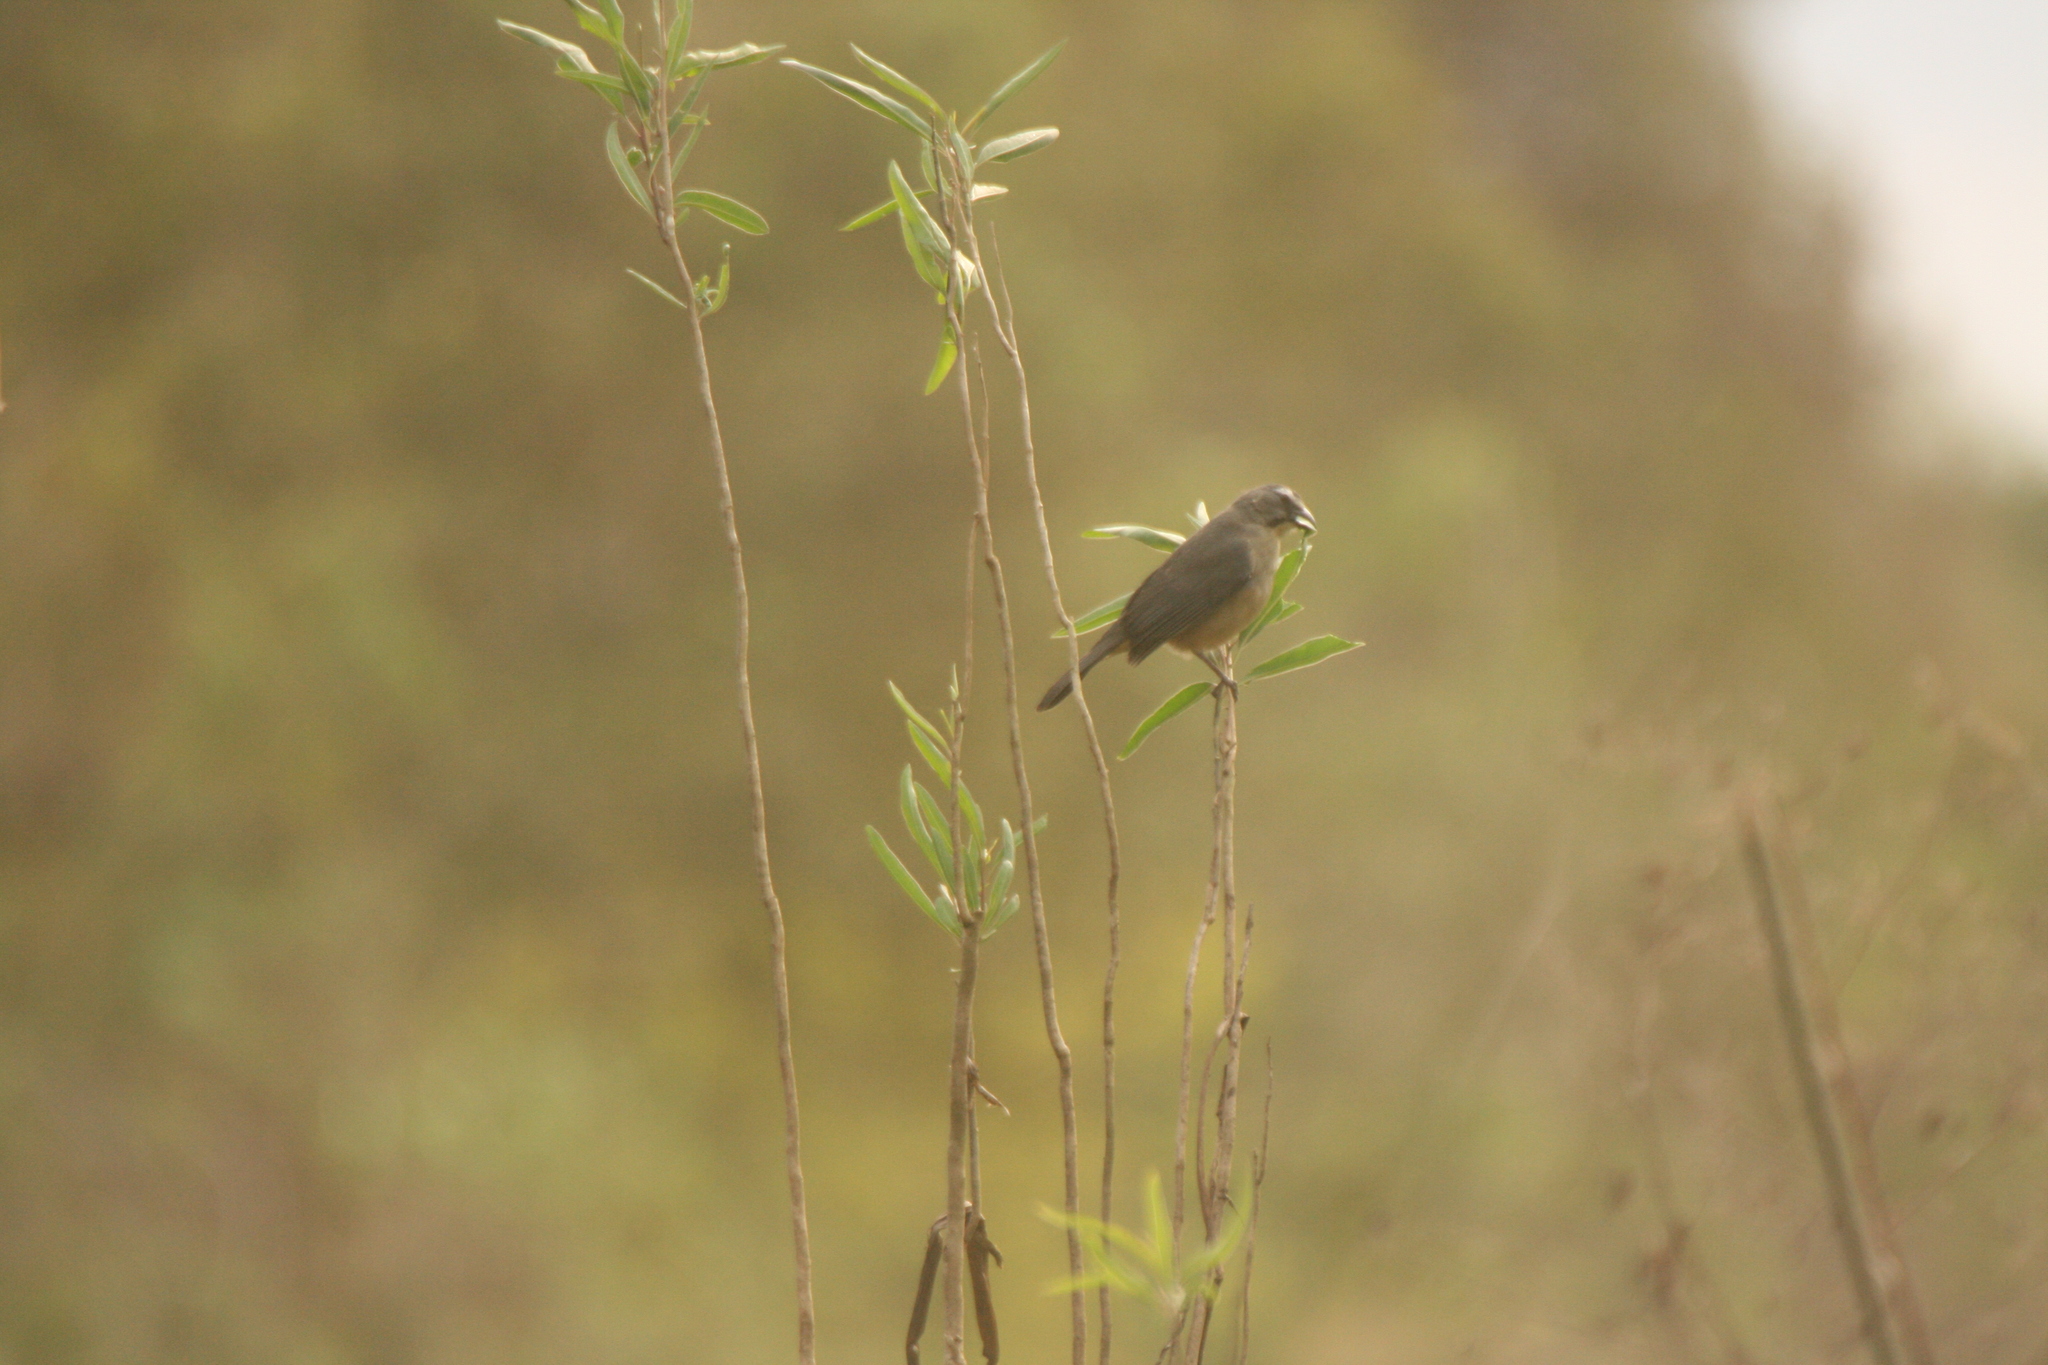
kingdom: Animalia
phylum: Chordata
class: Aves
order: Passeriformes
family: Thraupidae
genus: Saltator
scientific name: Saltator coerulescens
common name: Grayish saltator
